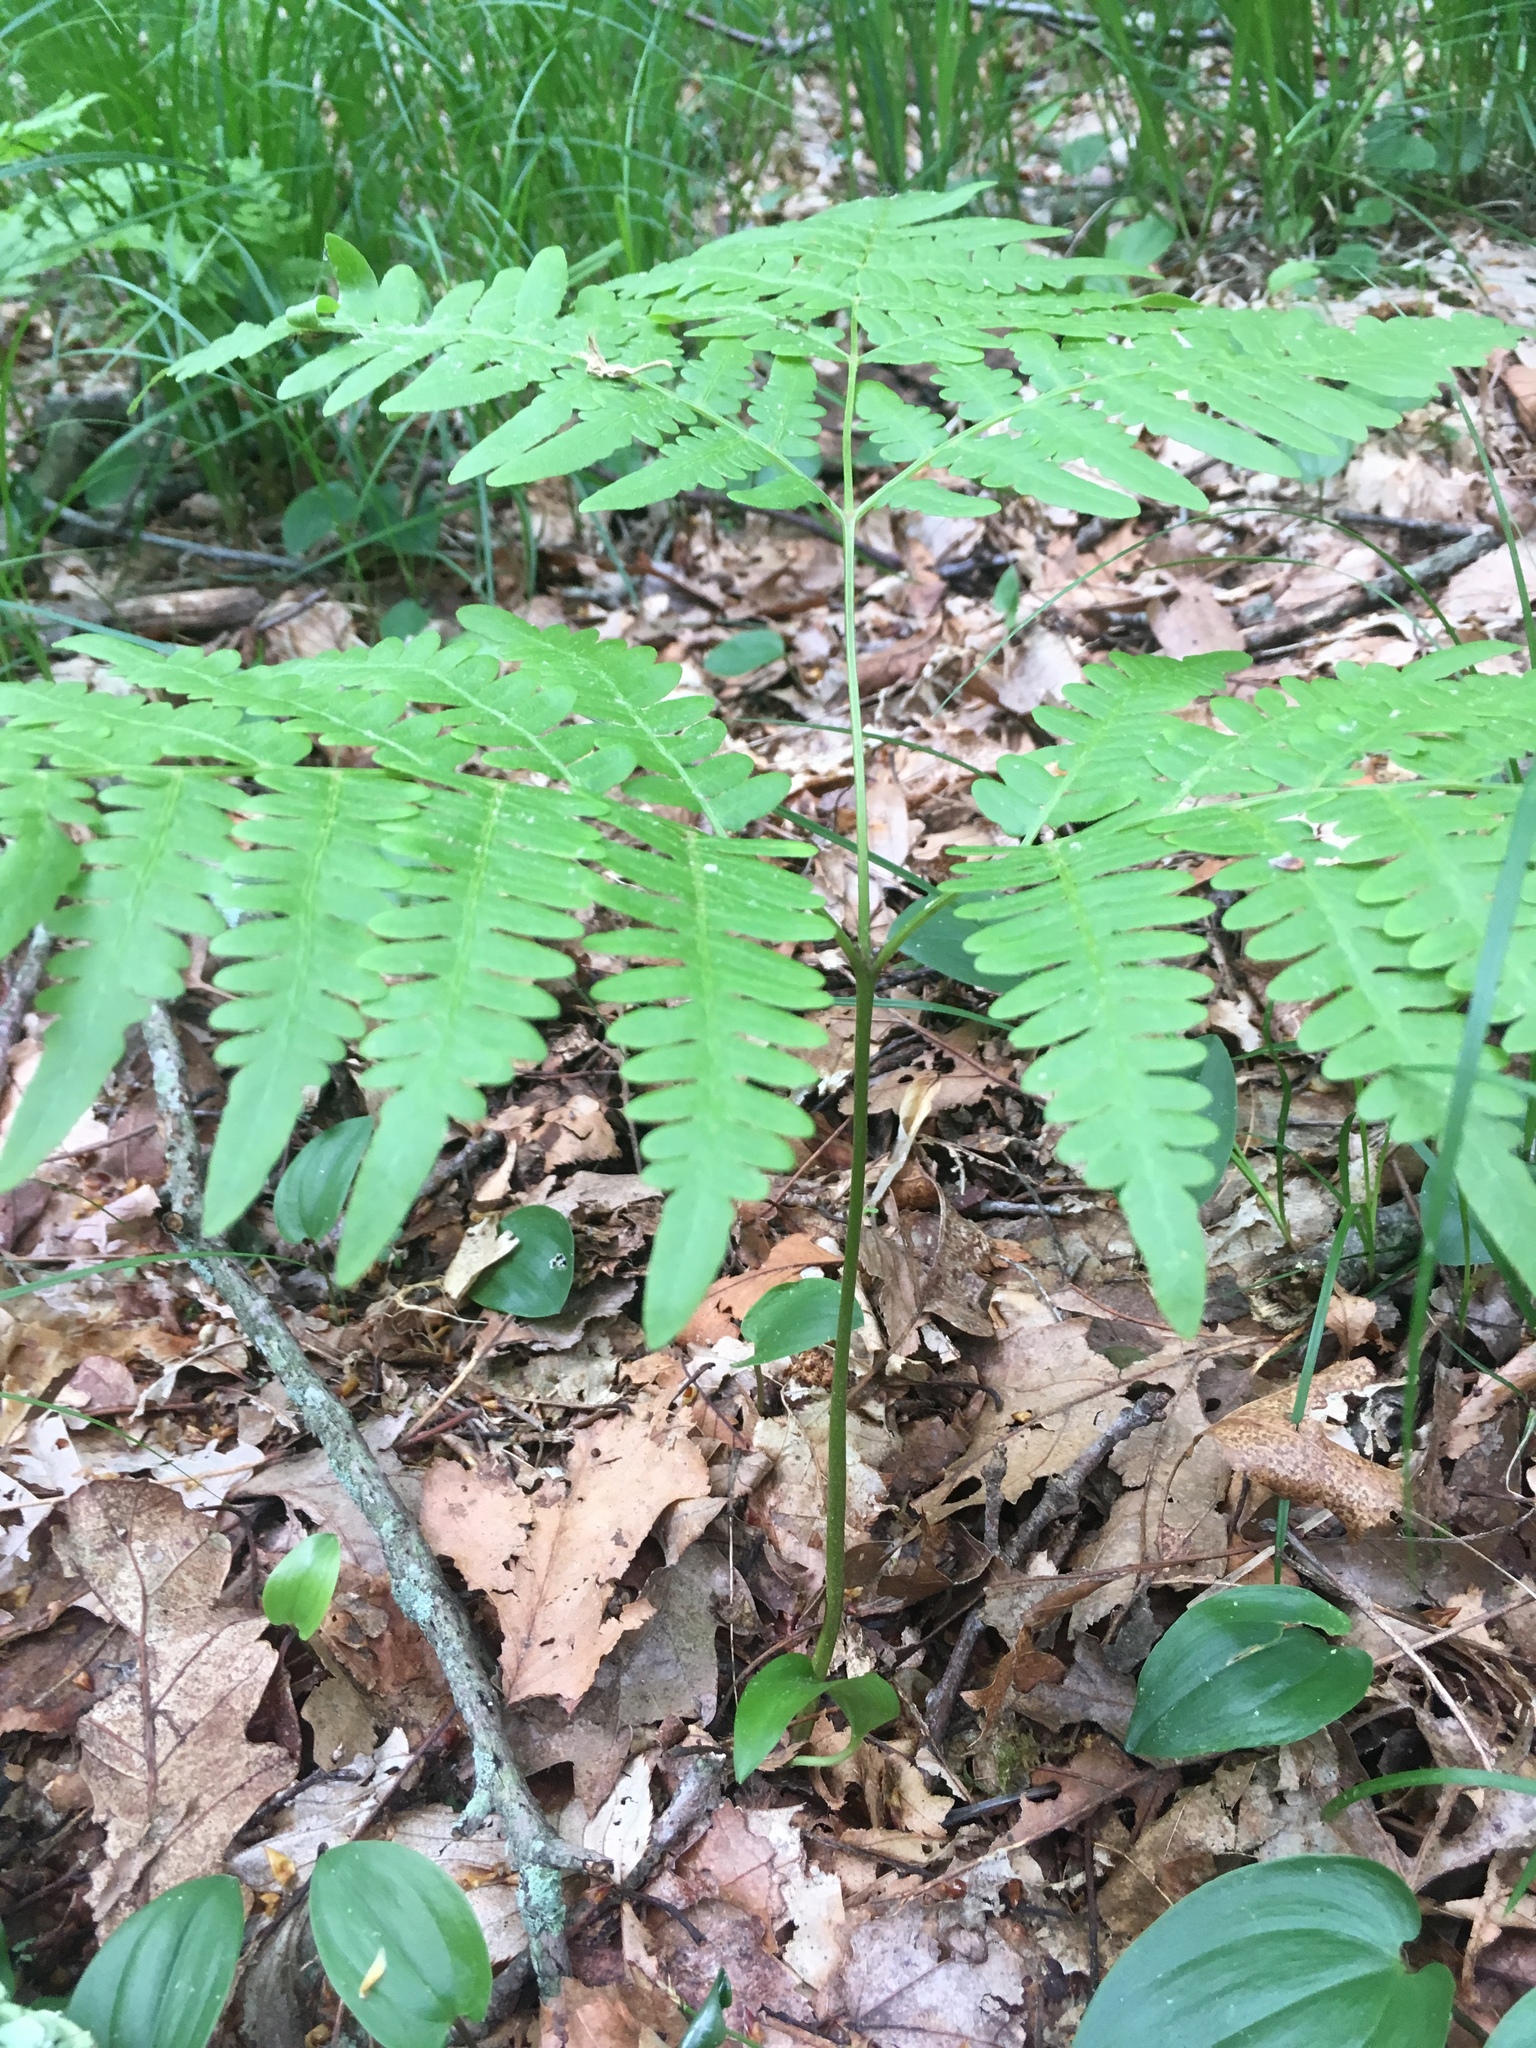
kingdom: Plantae
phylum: Tracheophyta
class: Polypodiopsida
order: Polypodiales
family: Dennstaedtiaceae
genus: Pteridium
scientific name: Pteridium aquilinum
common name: Bracken
